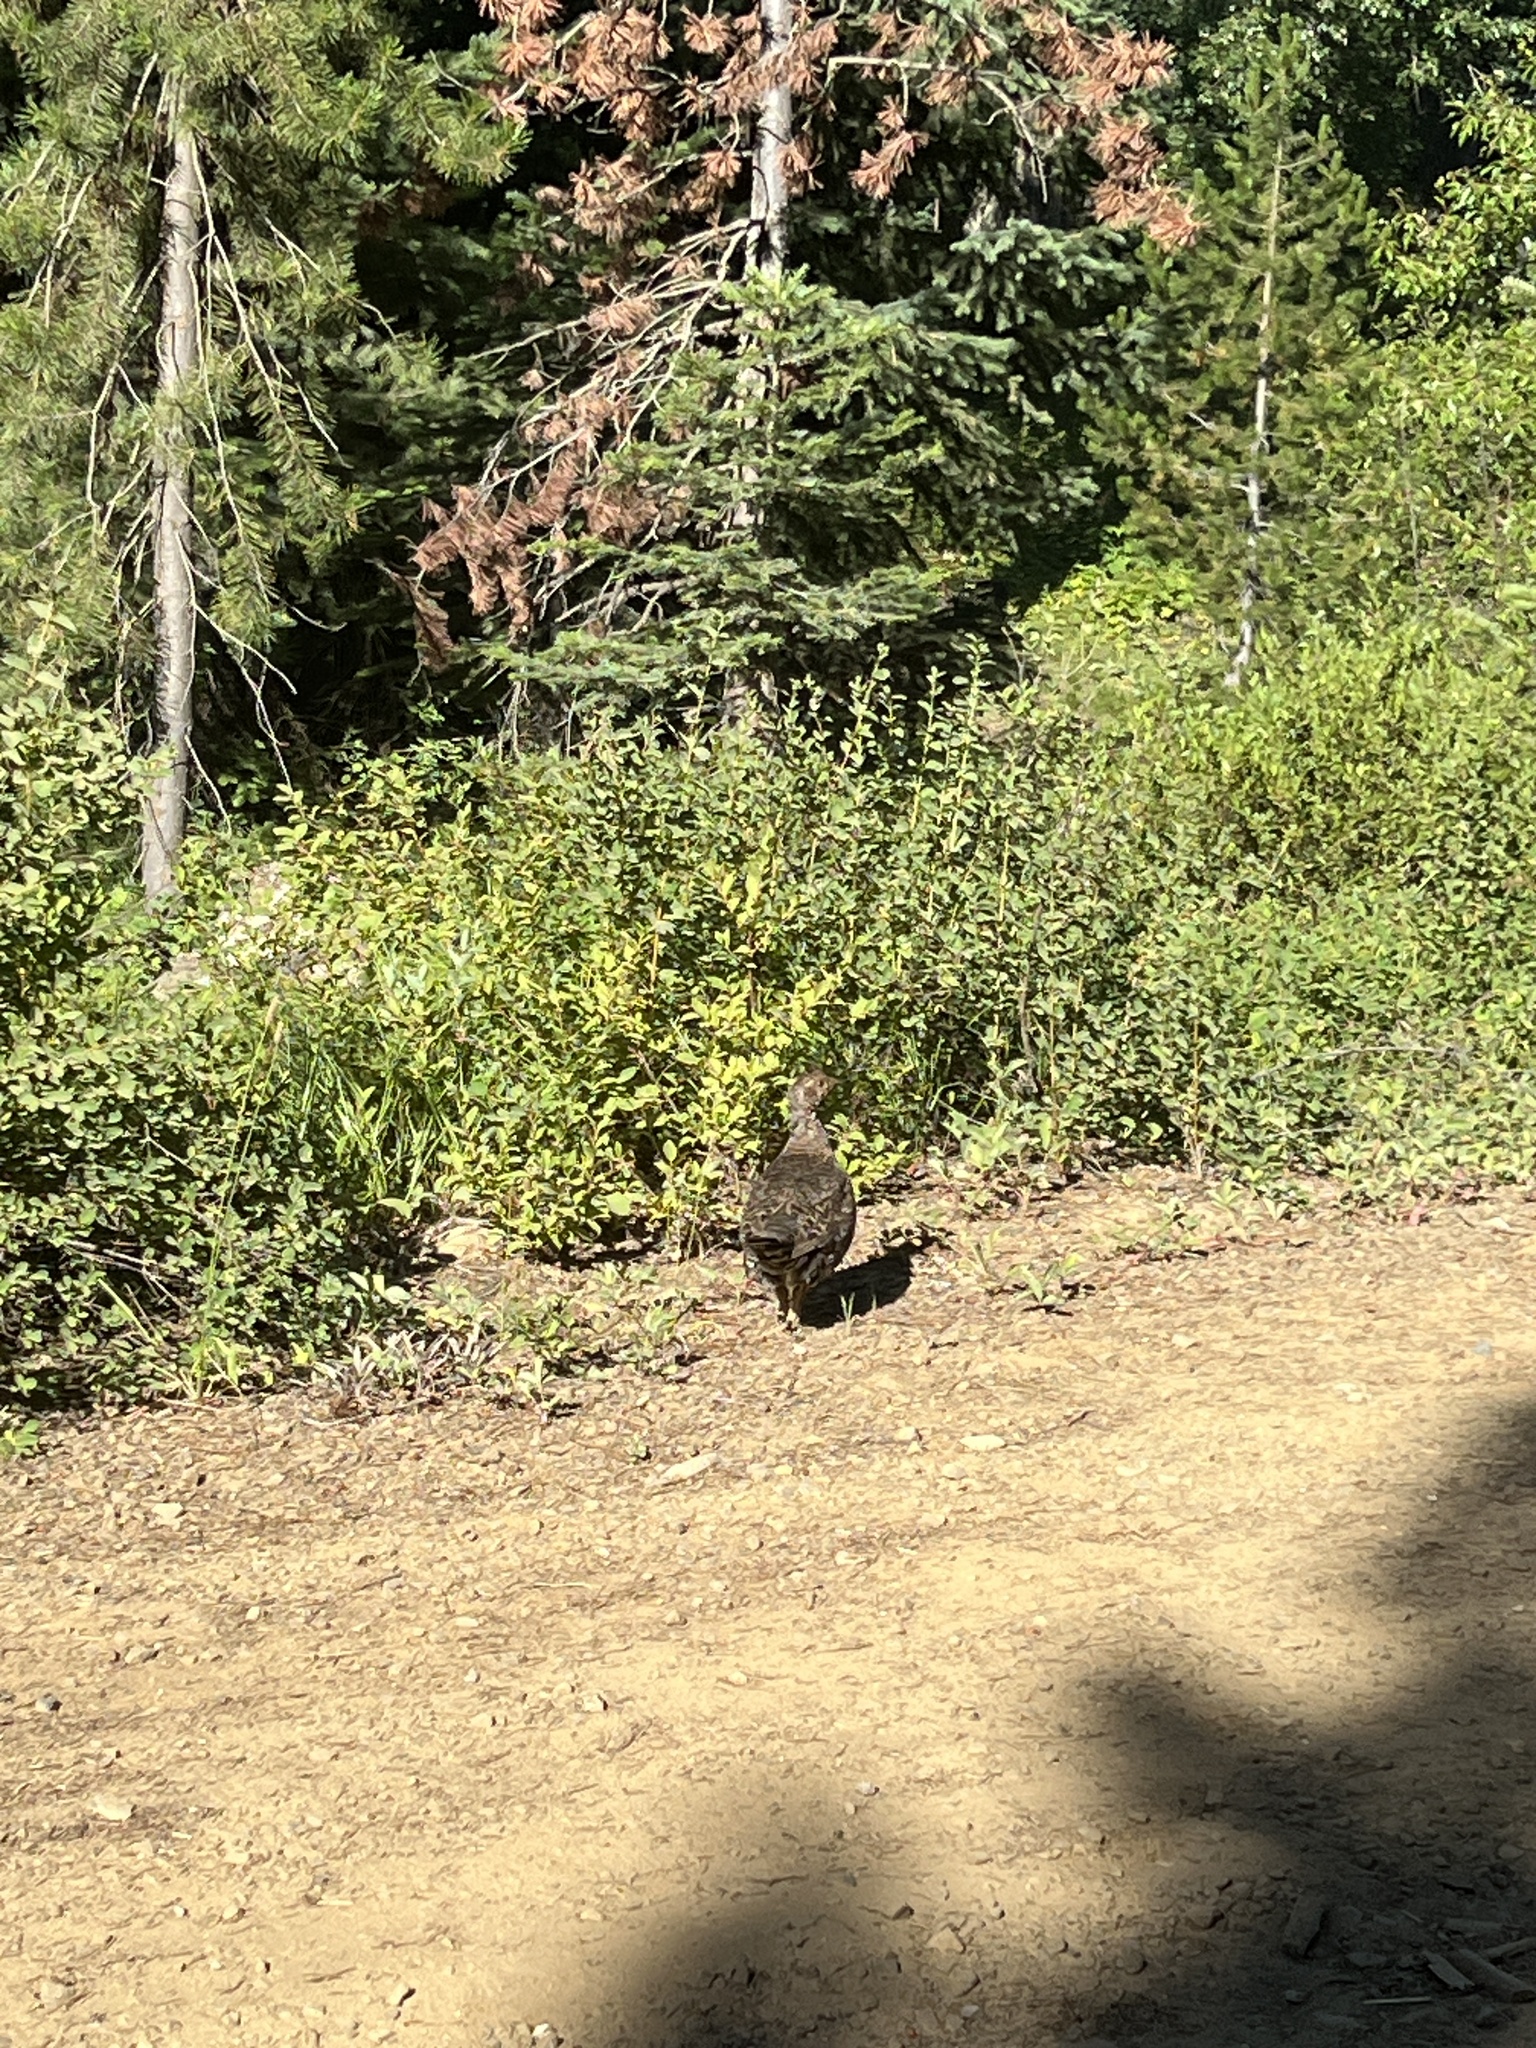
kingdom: Animalia
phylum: Chordata
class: Aves
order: Galliformes
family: Phasianidae
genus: Dendragapus
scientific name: Dendragapus fuliginosus
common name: Sooty grouse
